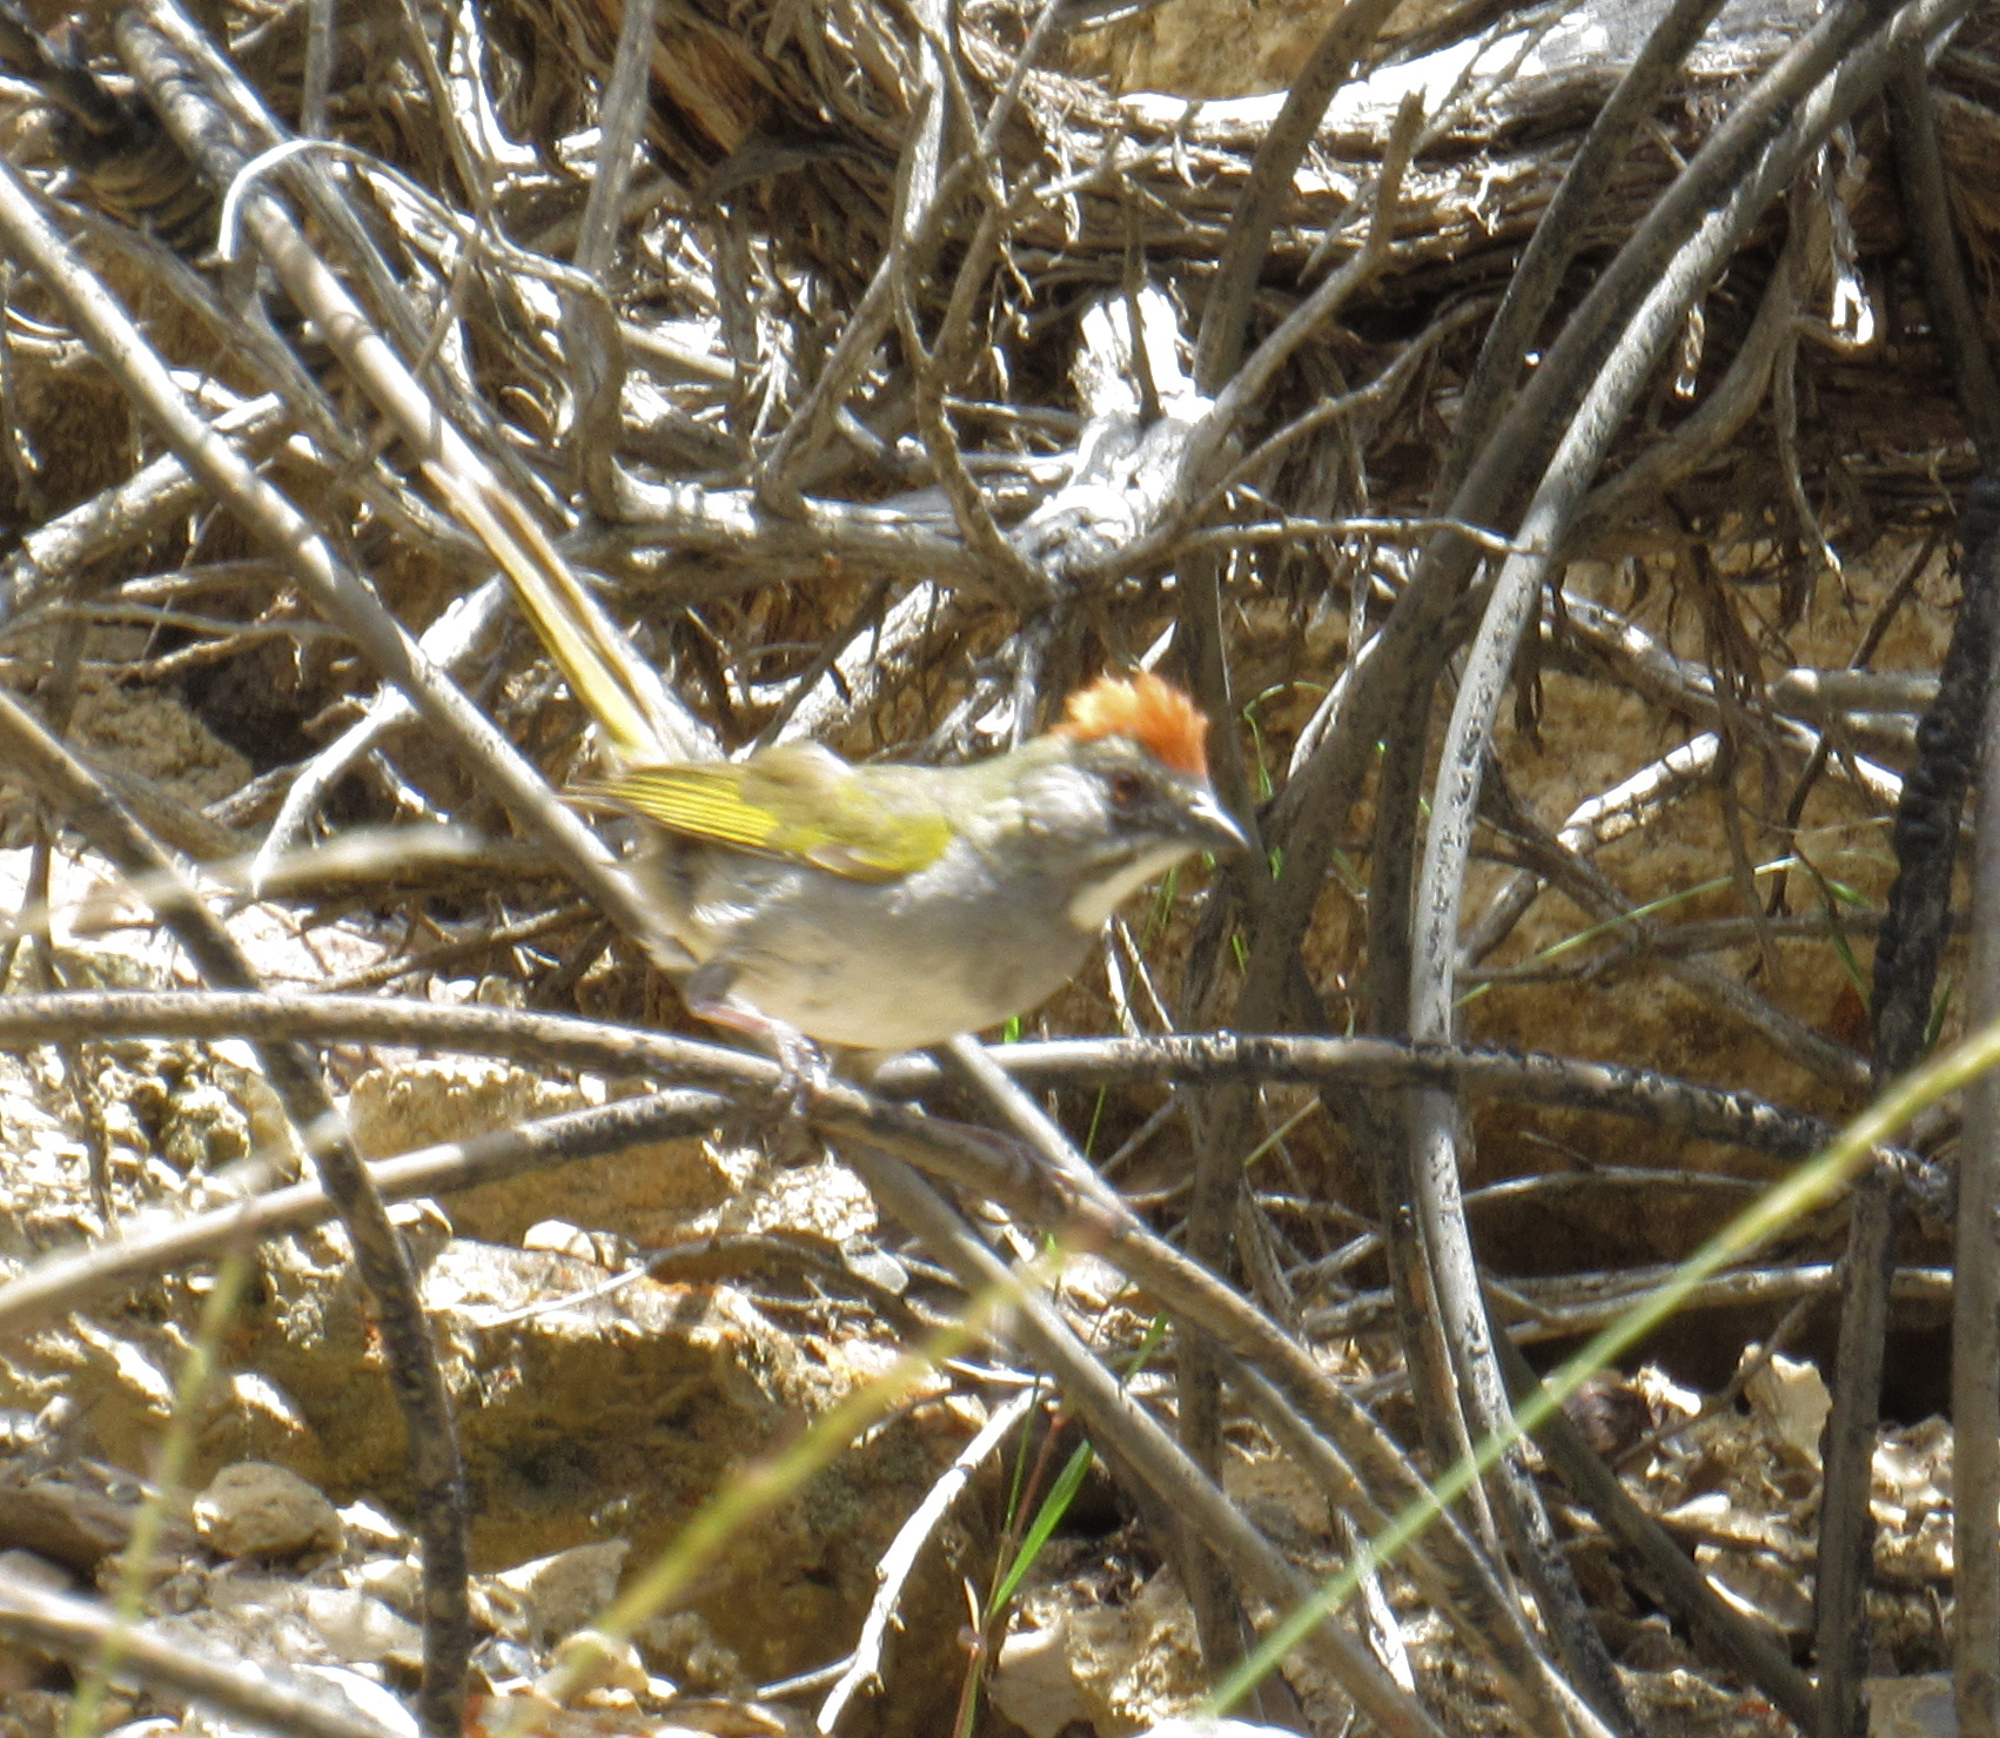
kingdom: Animalia
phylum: Chordata
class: Aves
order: Passeriformes
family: Passerellidae
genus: Pipilo
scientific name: Pipilo chlorurus
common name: Green-tailed towhee
